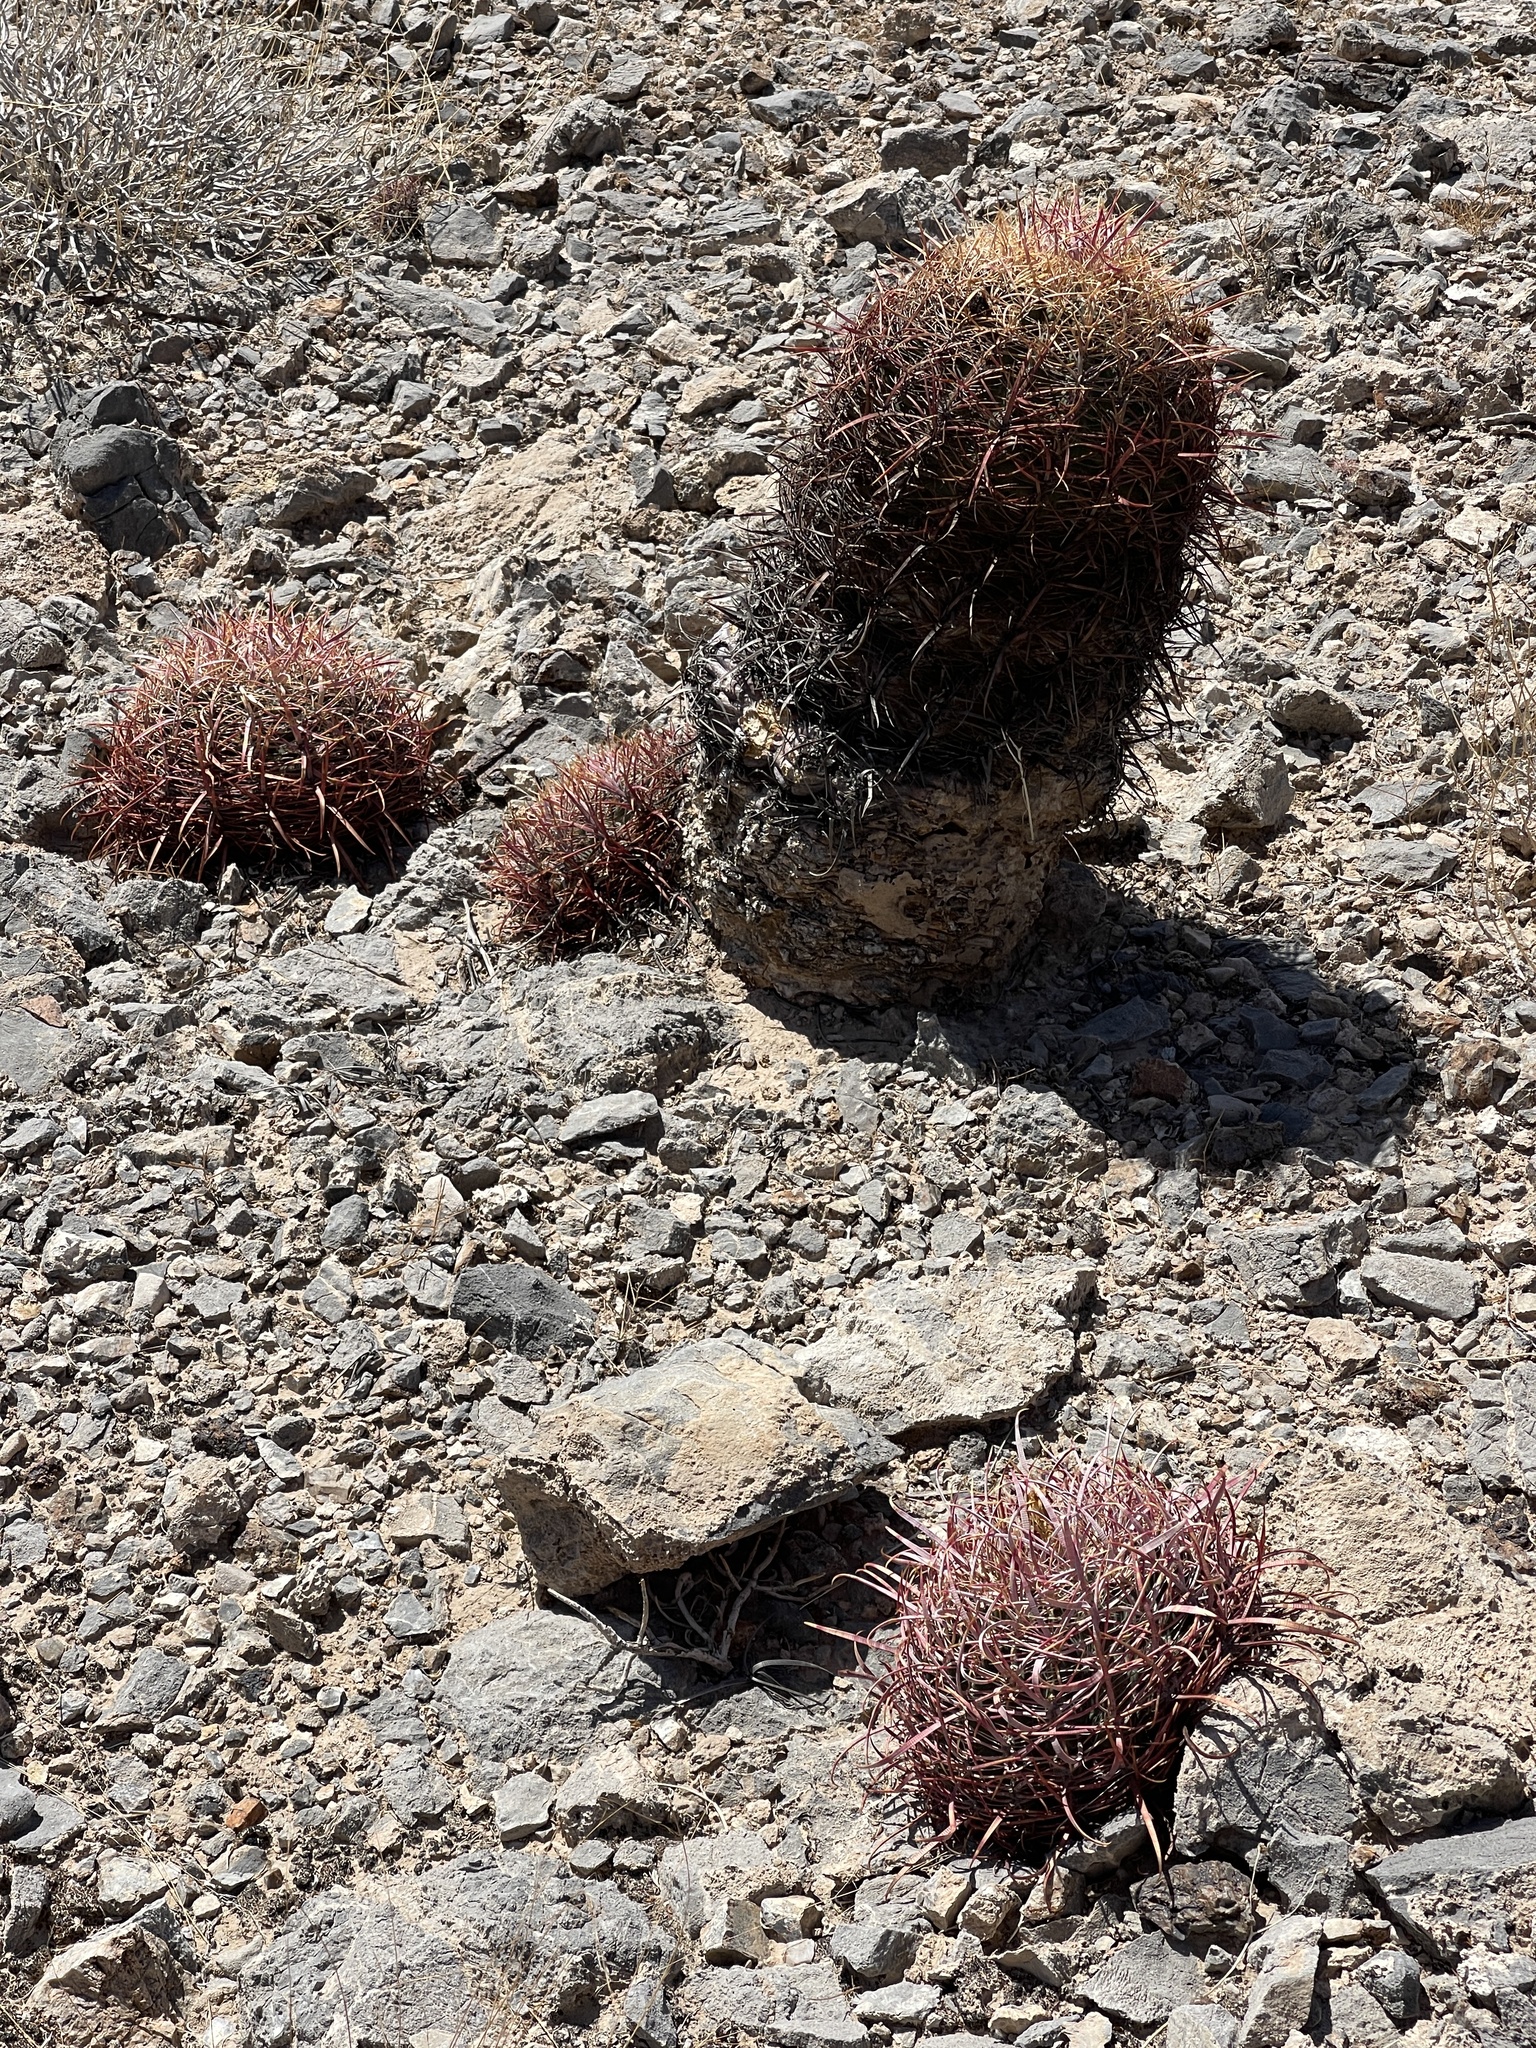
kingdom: Plantae
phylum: Tracheophyta
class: Magnoliopsida
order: Caryophyllales
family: Cactaceae
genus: Ferocactus
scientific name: Ferocactus cylindraceus
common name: California barrel cactus
